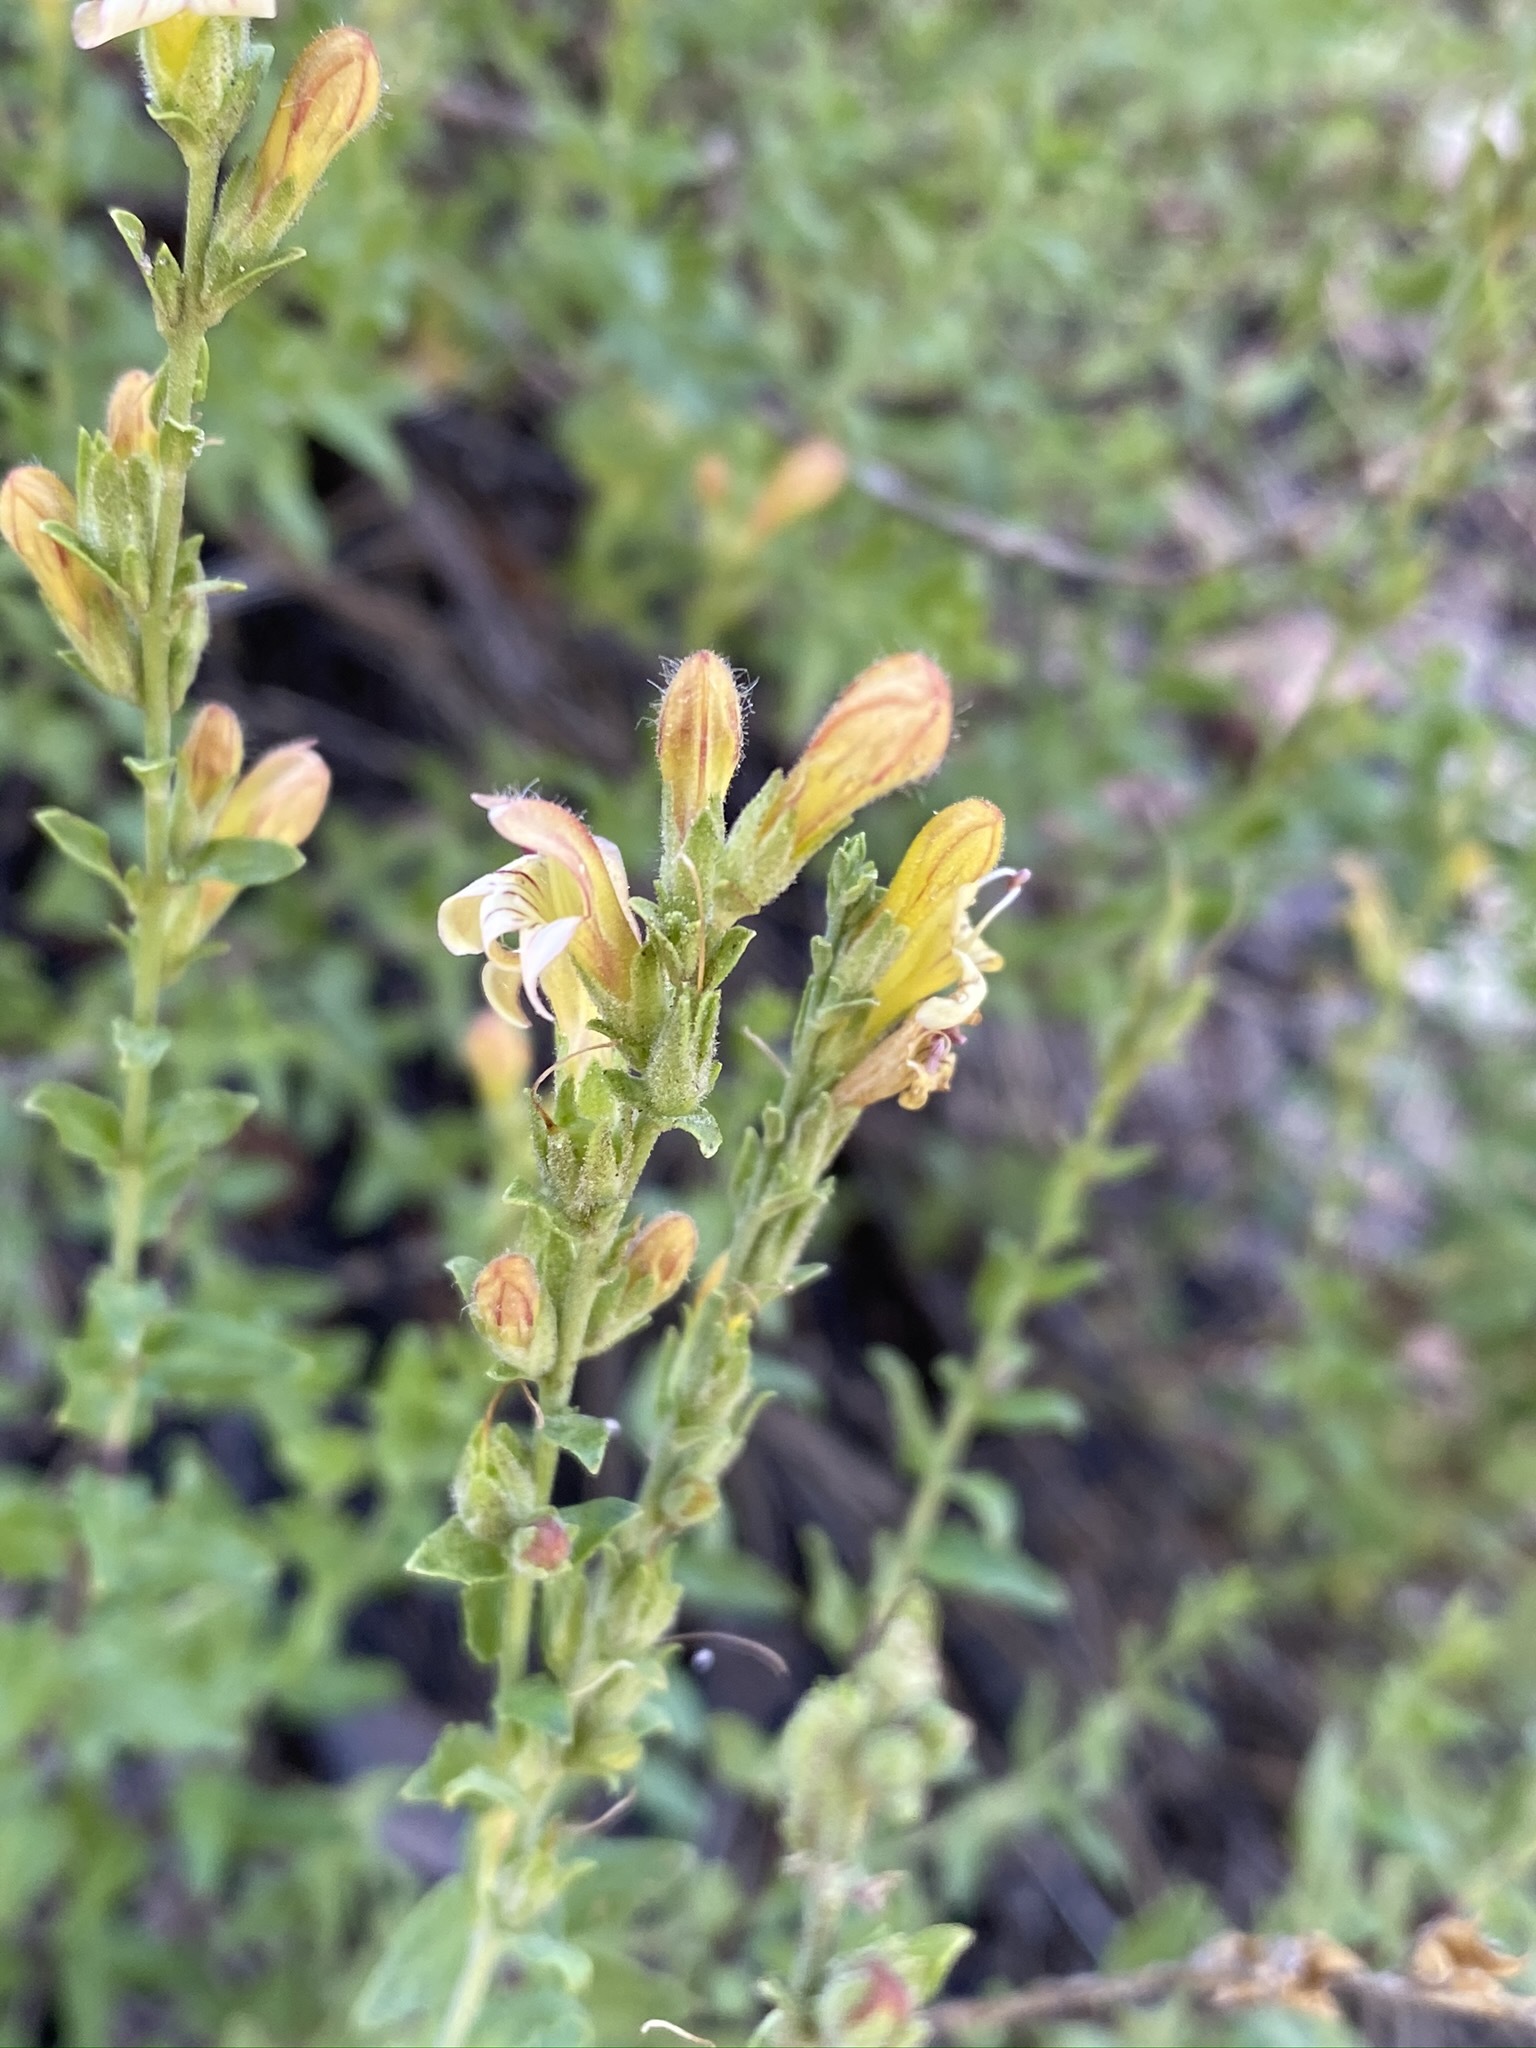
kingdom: Plantae
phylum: Tracheophyta
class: Magnoliopsida
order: Lamiales
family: Plantaginaceae
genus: Keckiella
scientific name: Keckiella rothrockii
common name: Rothrock's keckiella
